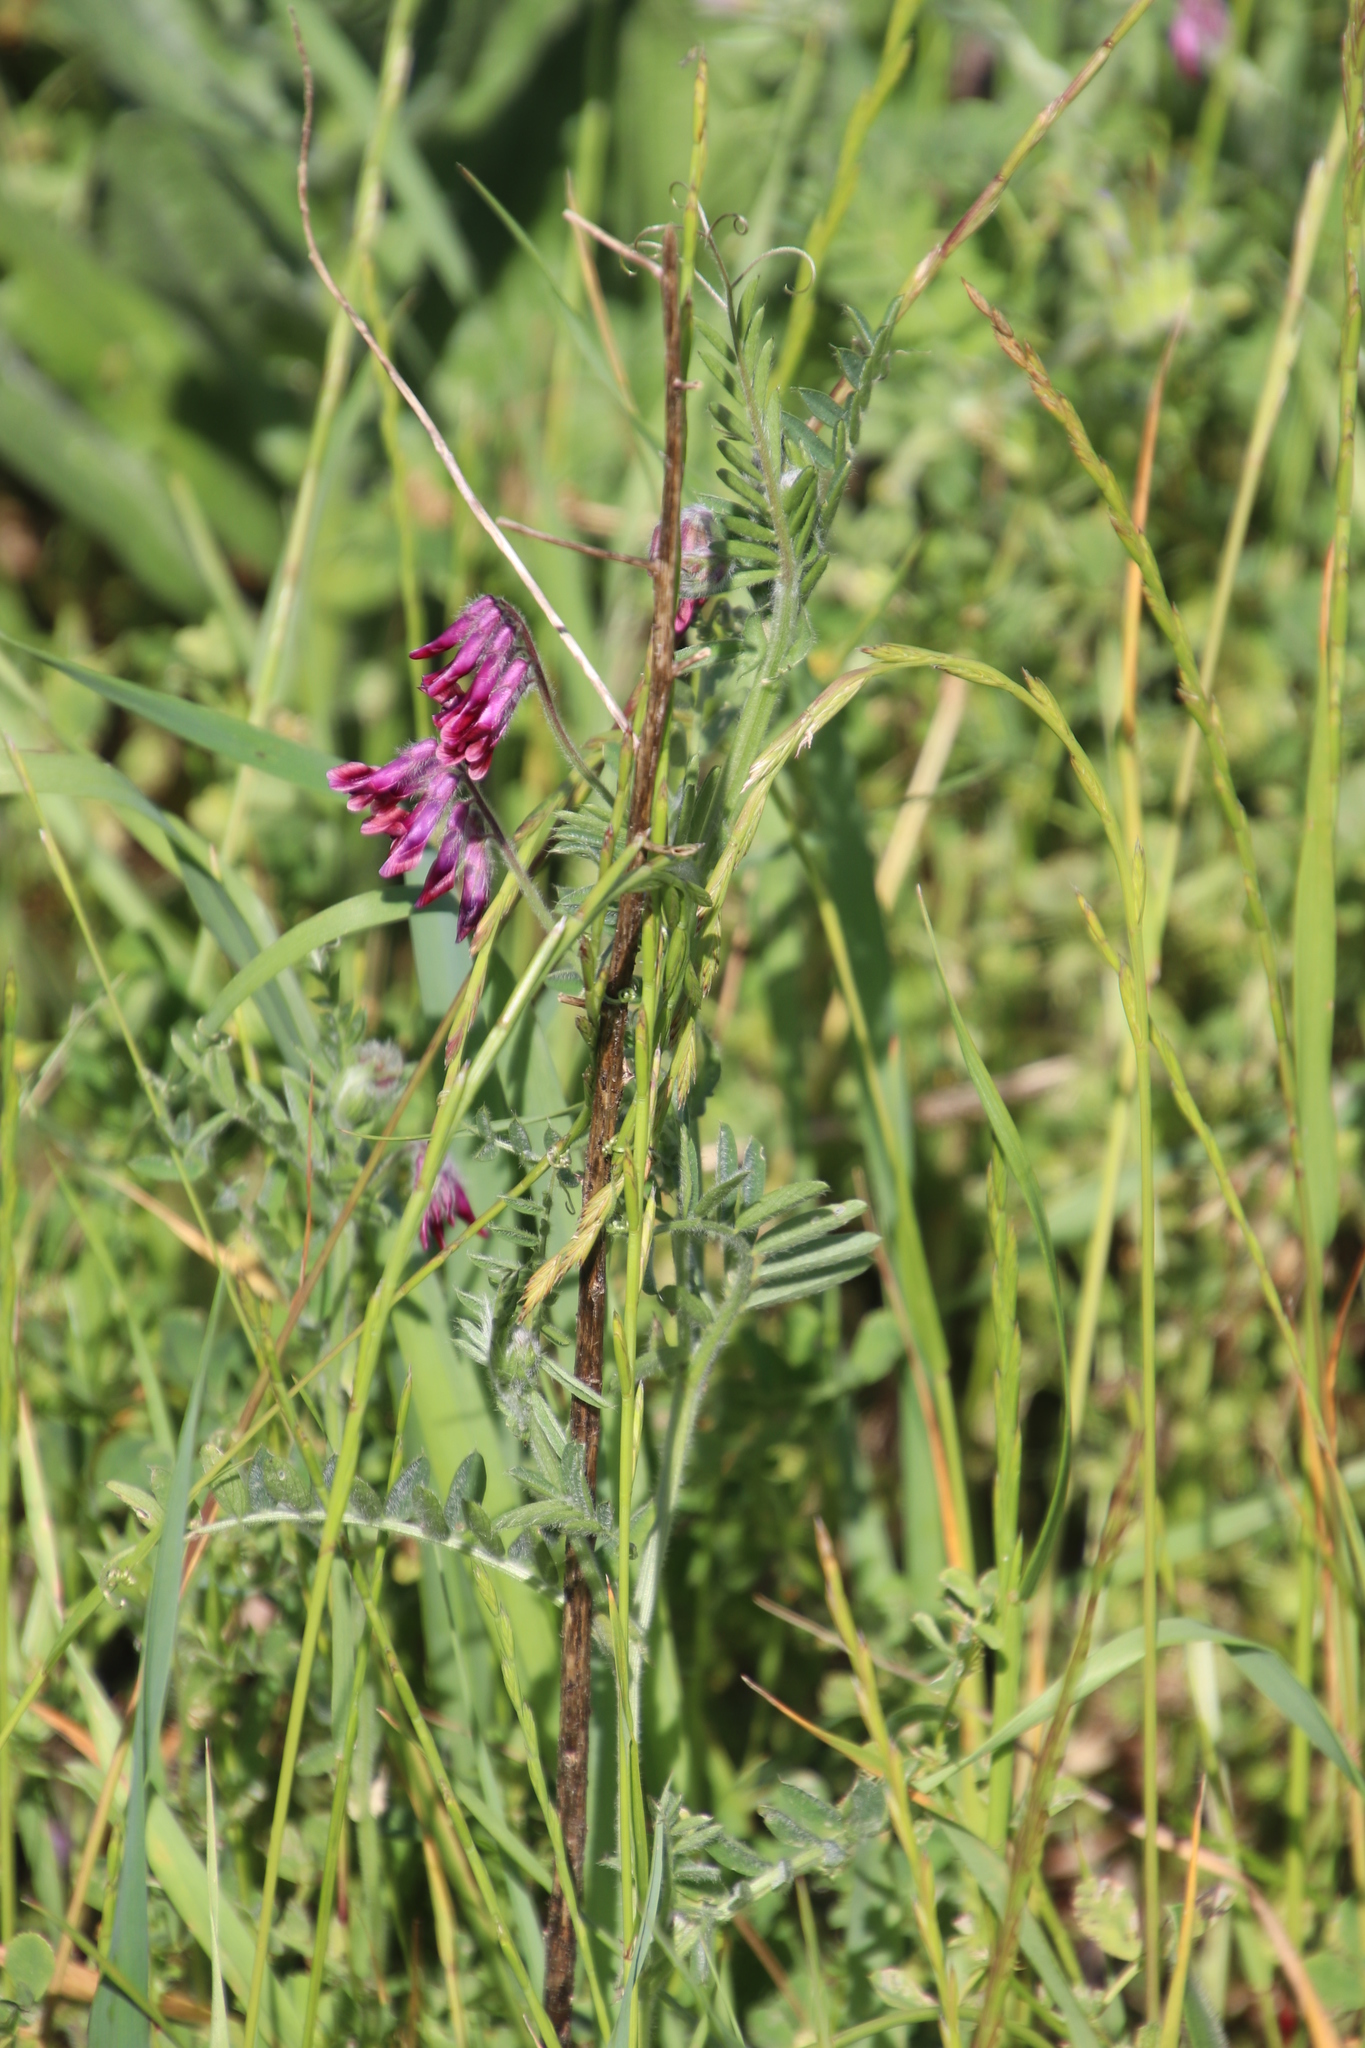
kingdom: Plantae
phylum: Tracheophyta
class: Magnoliopsida
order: Fabales
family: Fabaceae
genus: Vicia
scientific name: Vicia benghalensis
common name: Purple vetch
